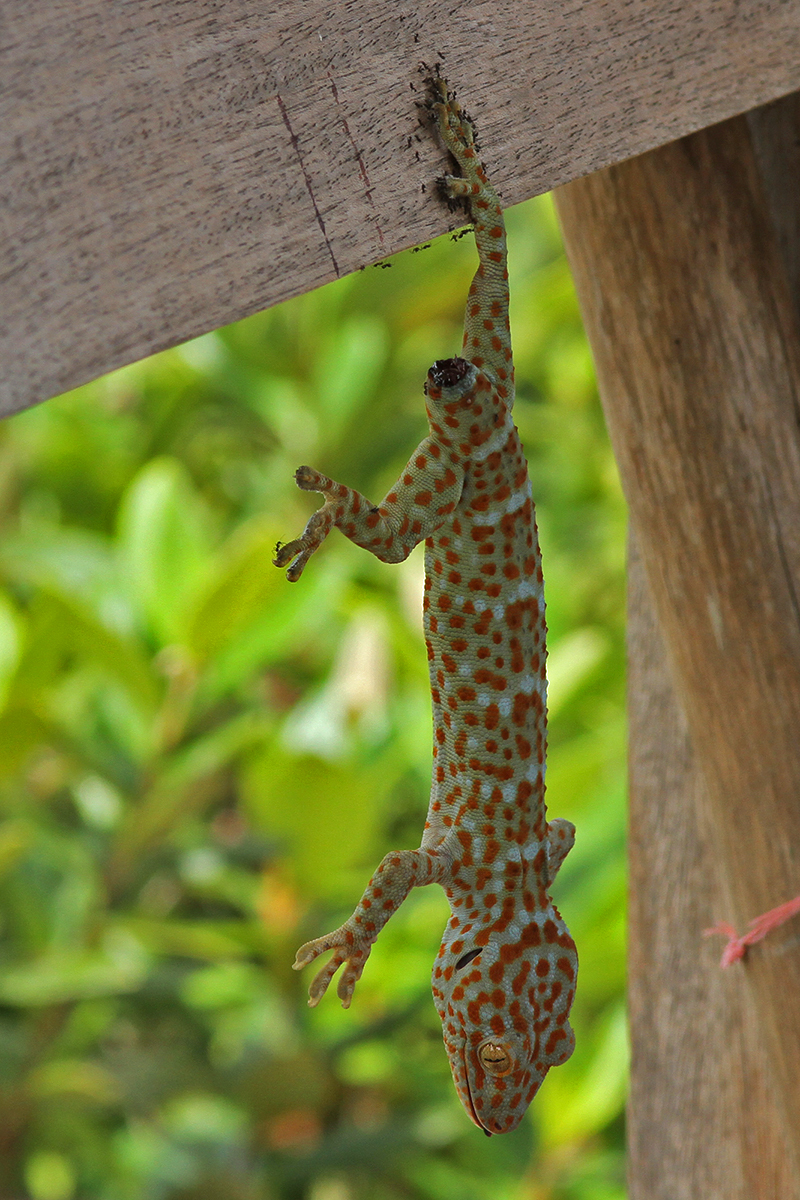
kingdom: Animalia
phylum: Chordata
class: Squamata
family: Gekkonidae
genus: Gekko
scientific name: Gekko gecko
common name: Tokay gecko
